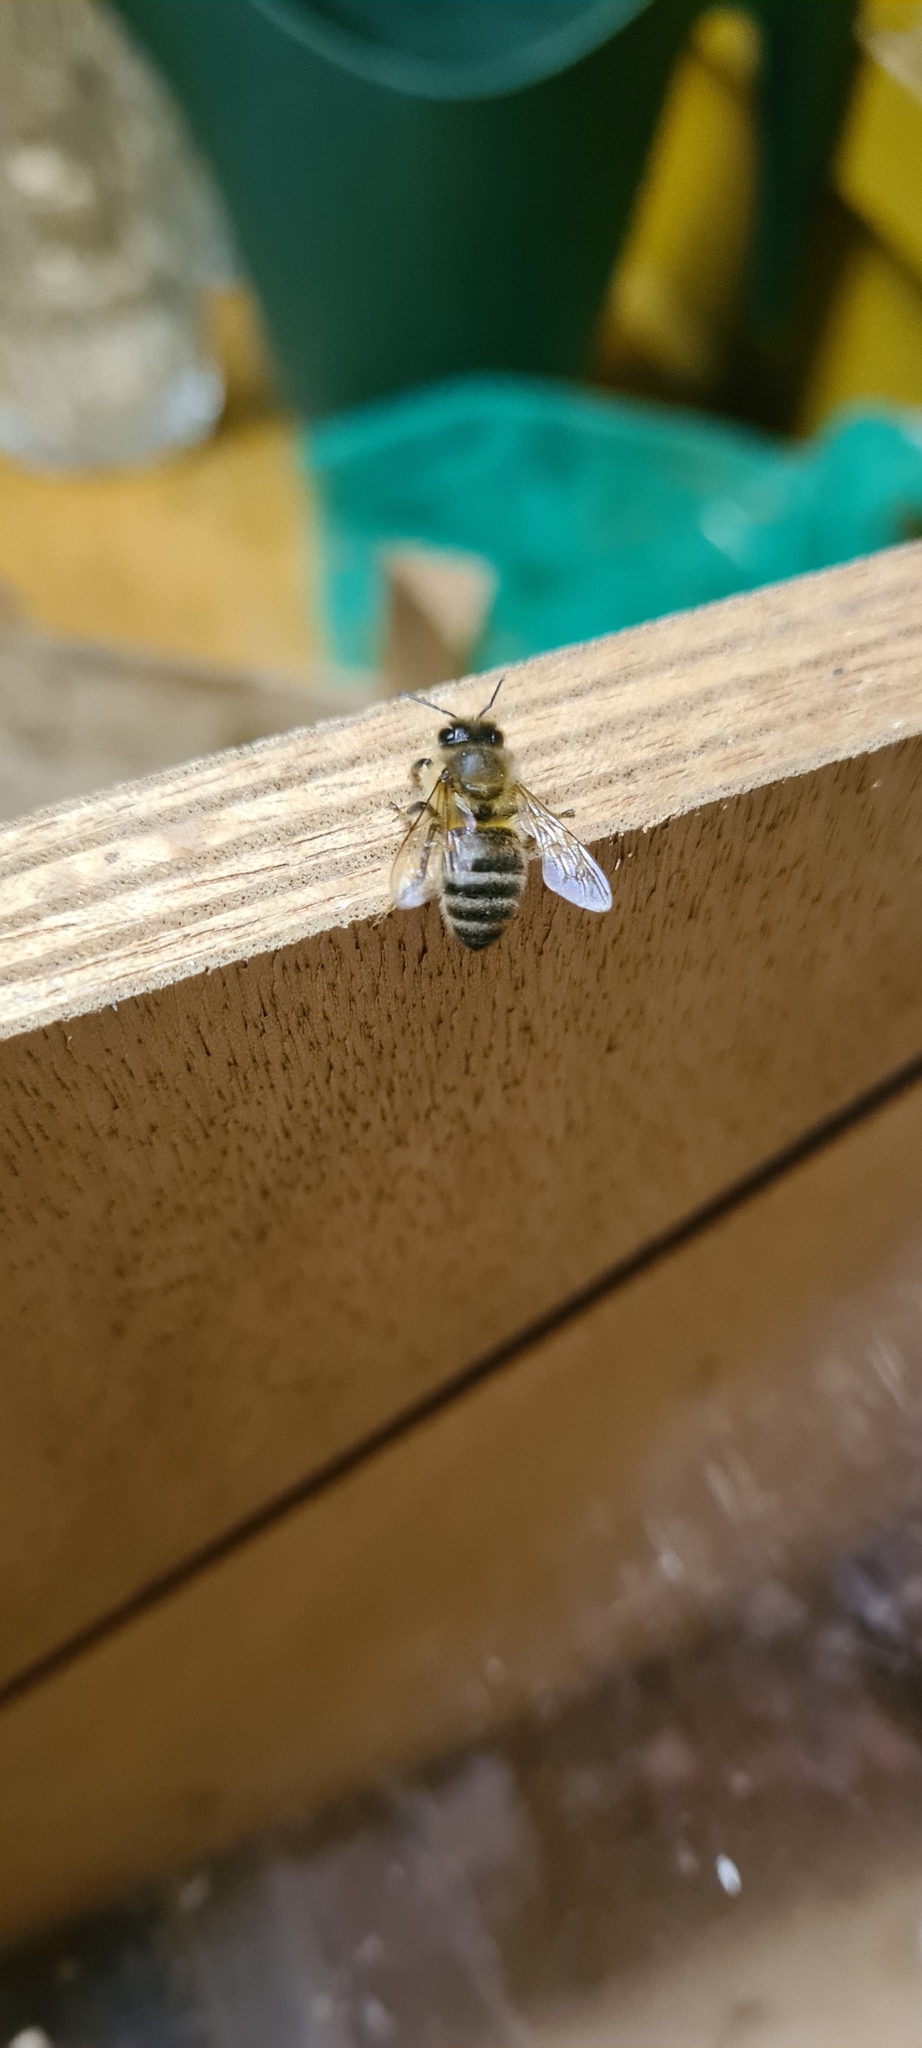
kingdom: Animalia
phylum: Arthropoda
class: Insecta
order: Hymenoptera
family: Apidae
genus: Apis
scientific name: Apis mellifera
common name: Honey bee
